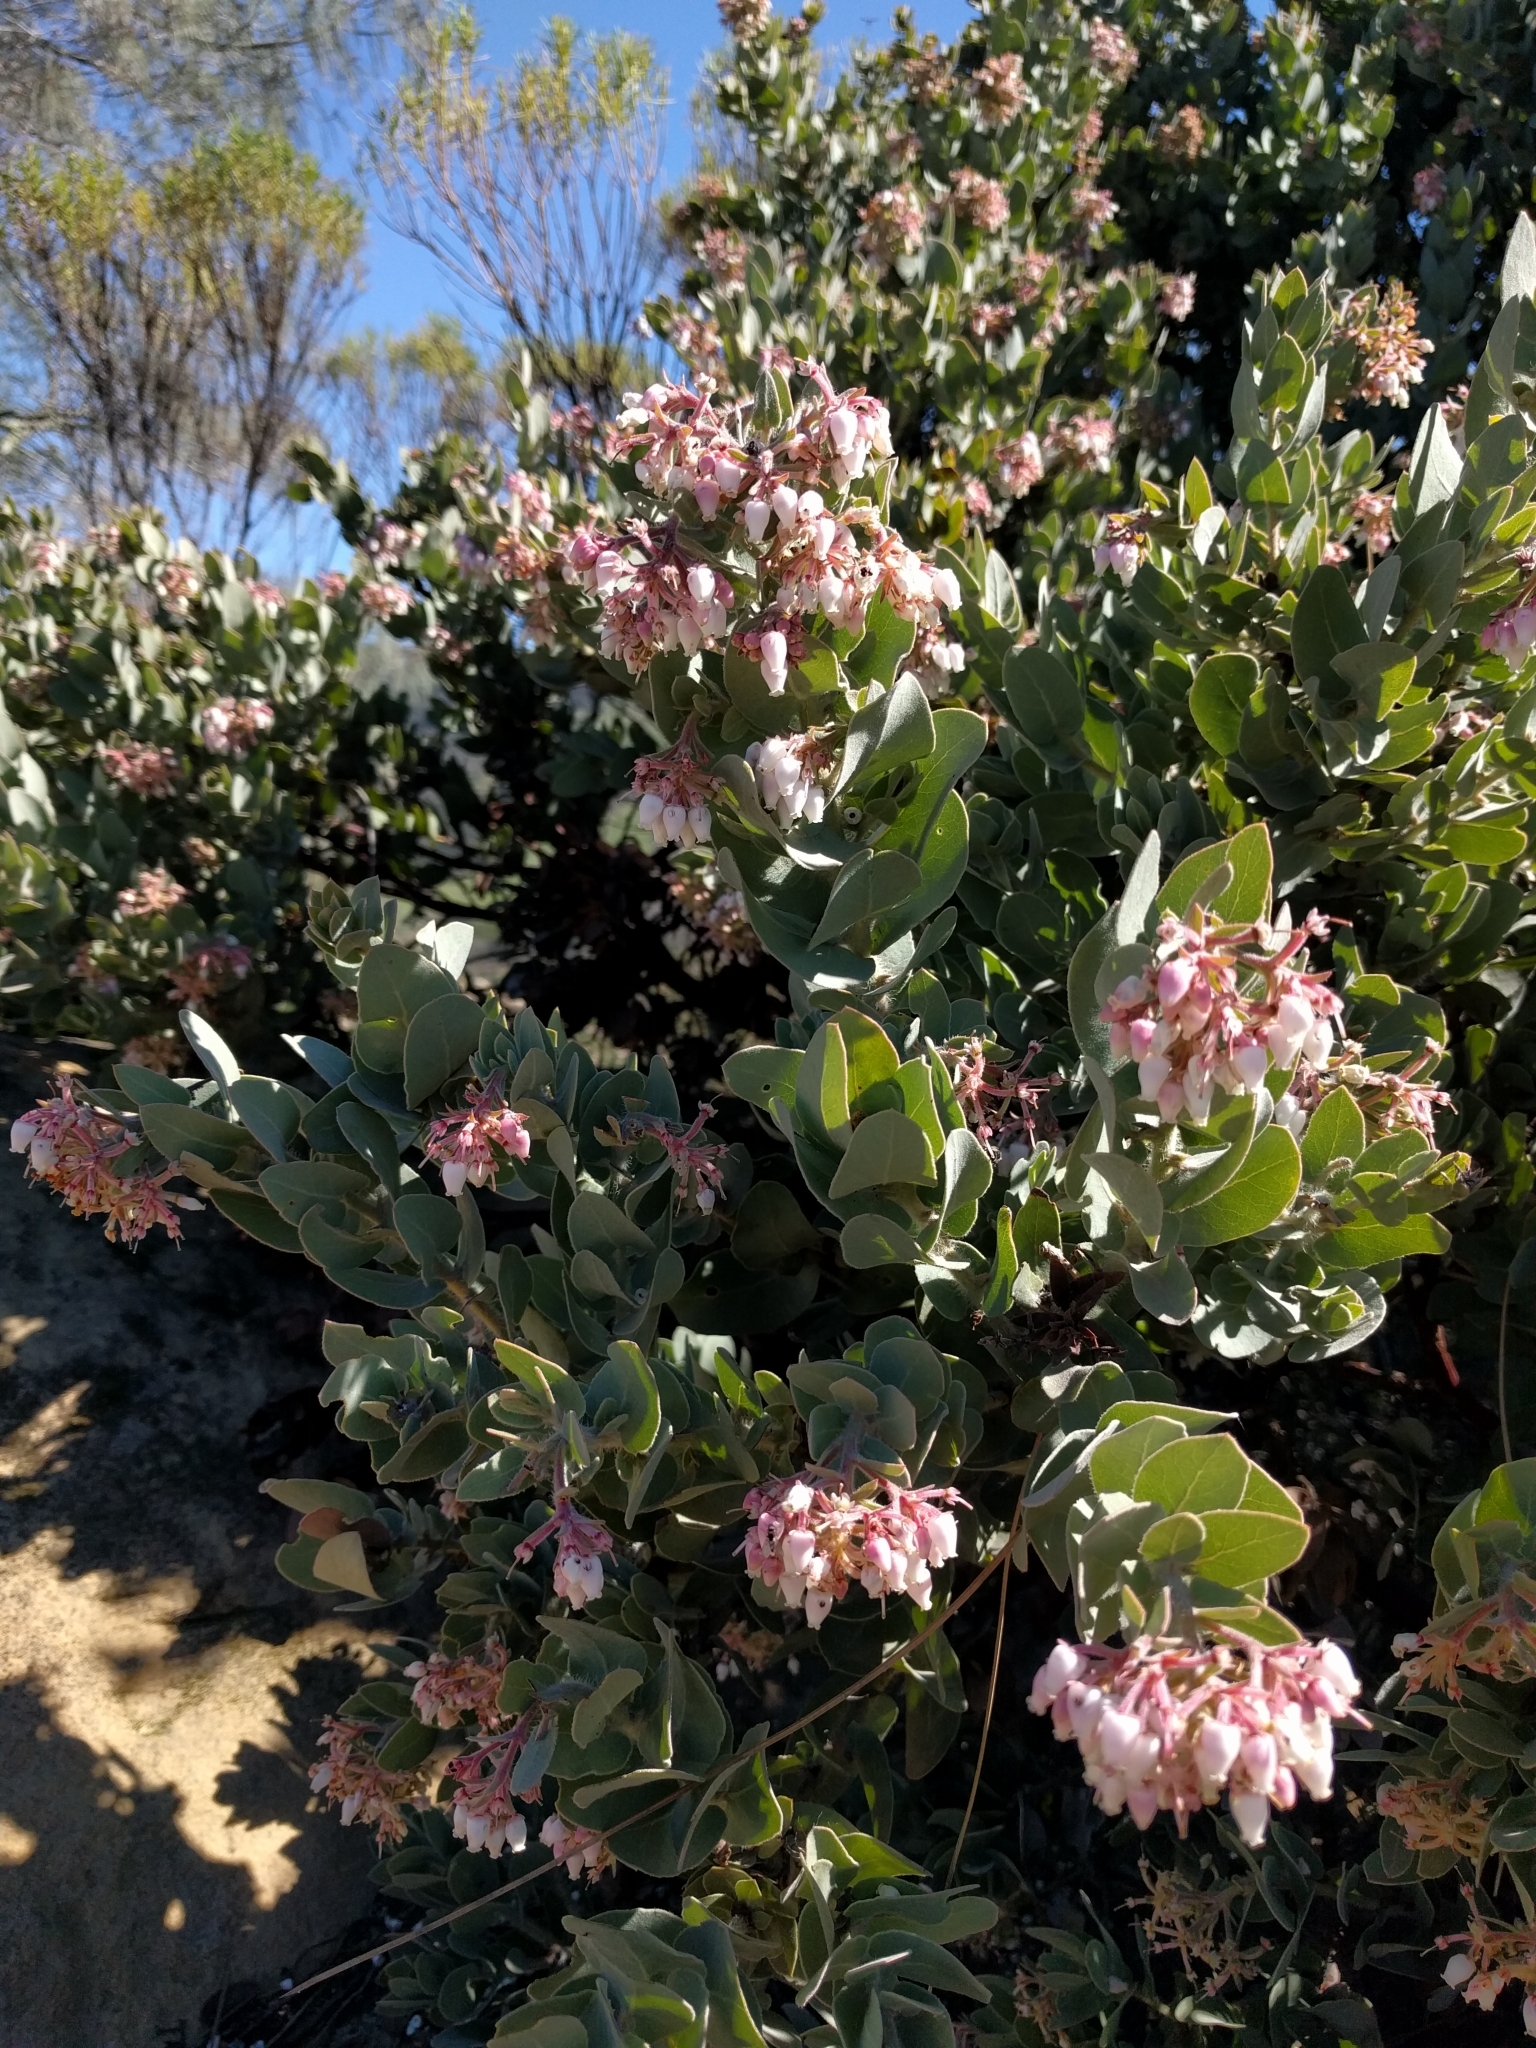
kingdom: Plantae
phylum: Tracheophyta
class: Magnoliopsida
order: Ericales
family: Ericaceae
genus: Arctostaphylos
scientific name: Arctostaphylos auriculata
